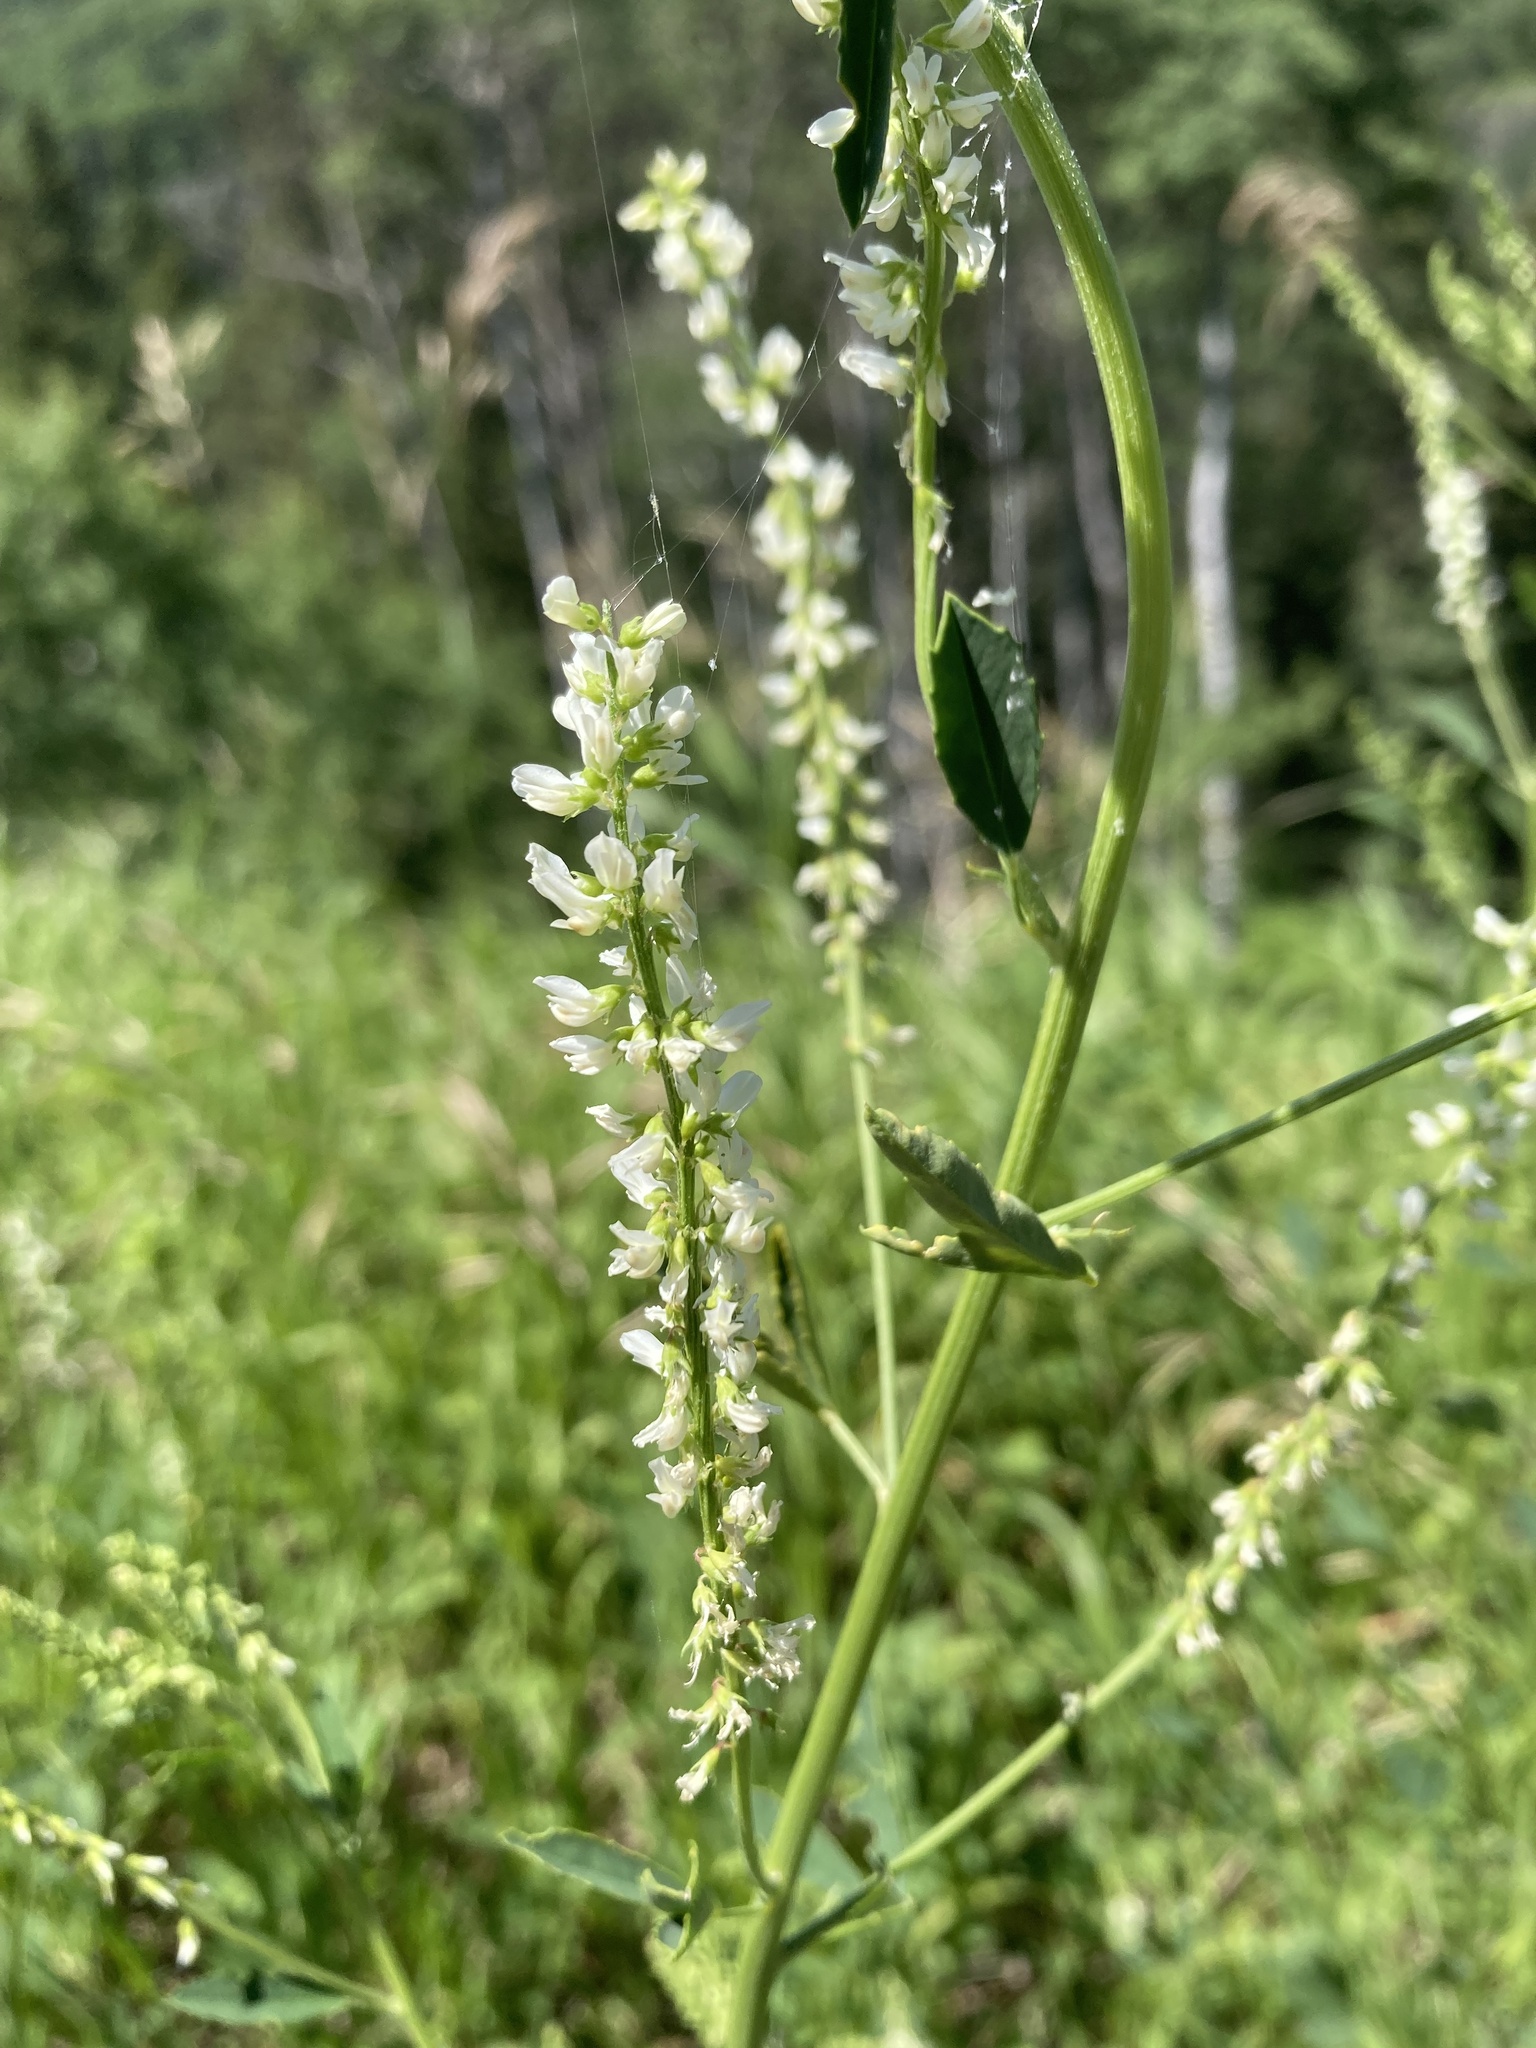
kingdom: Plantae
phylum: Tracheophyta
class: Magnoliopsida
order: Fabales
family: Fabaceae
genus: Melilotus
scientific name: Melilotus albus
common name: White melilot
